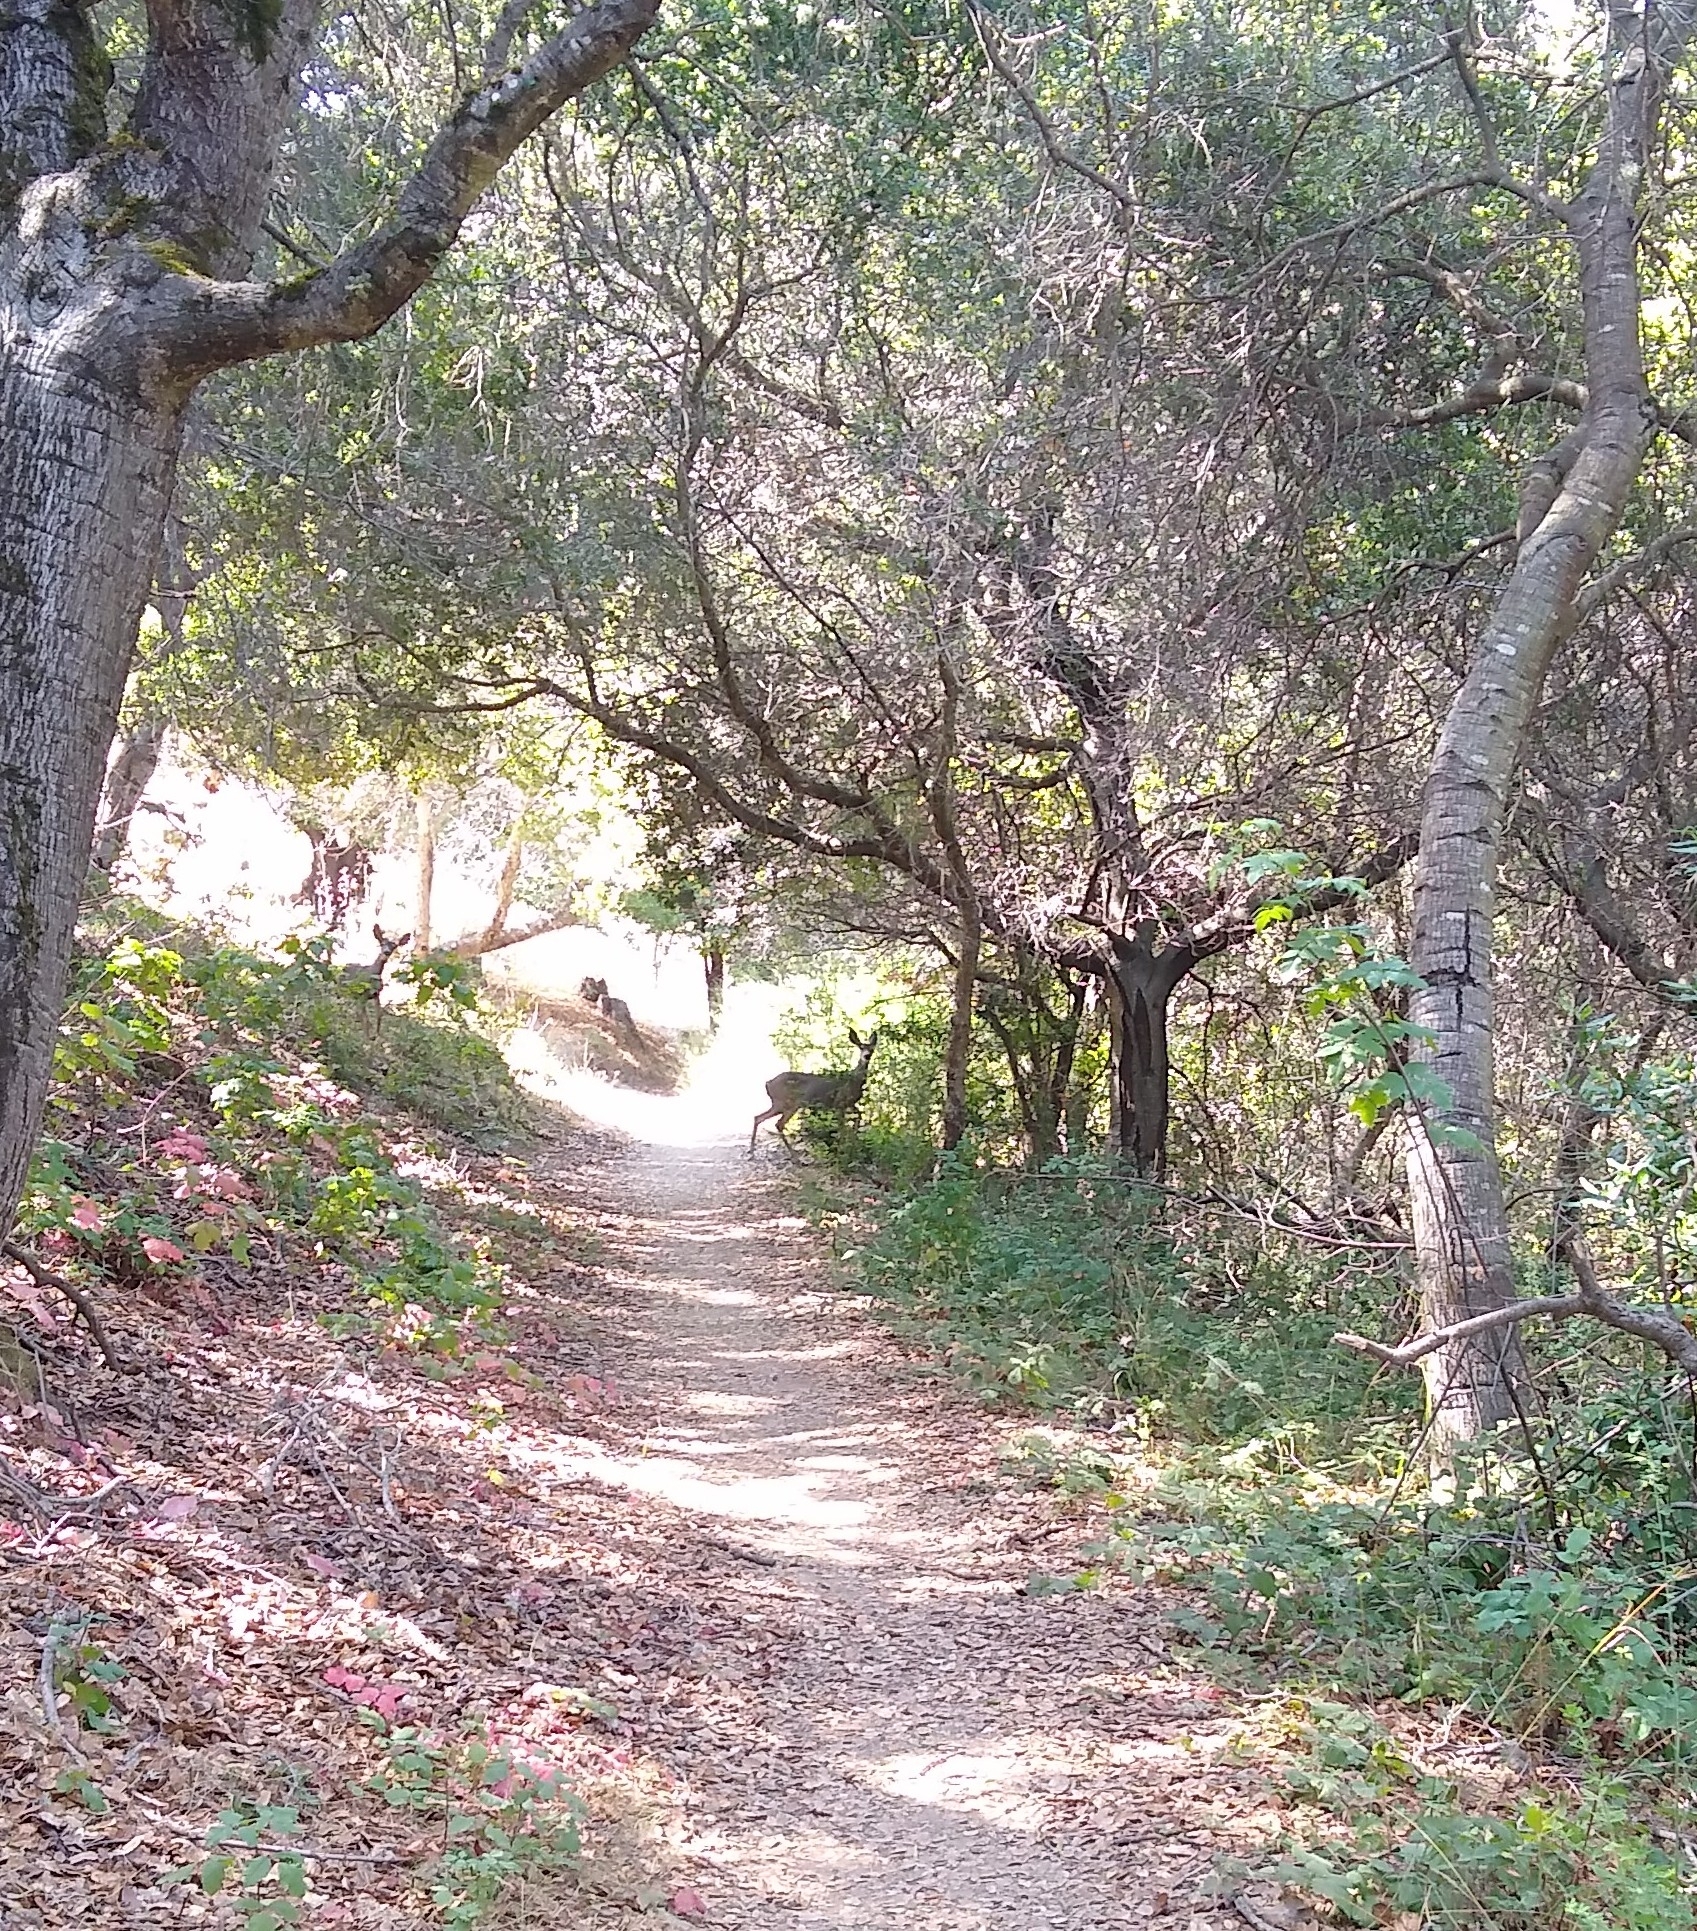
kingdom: Animalia
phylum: Chordata
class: Mammalia
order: Artiodactyla
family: Cervidae
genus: Odocoileus
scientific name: Odocoileus hemionus
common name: Mule deer
